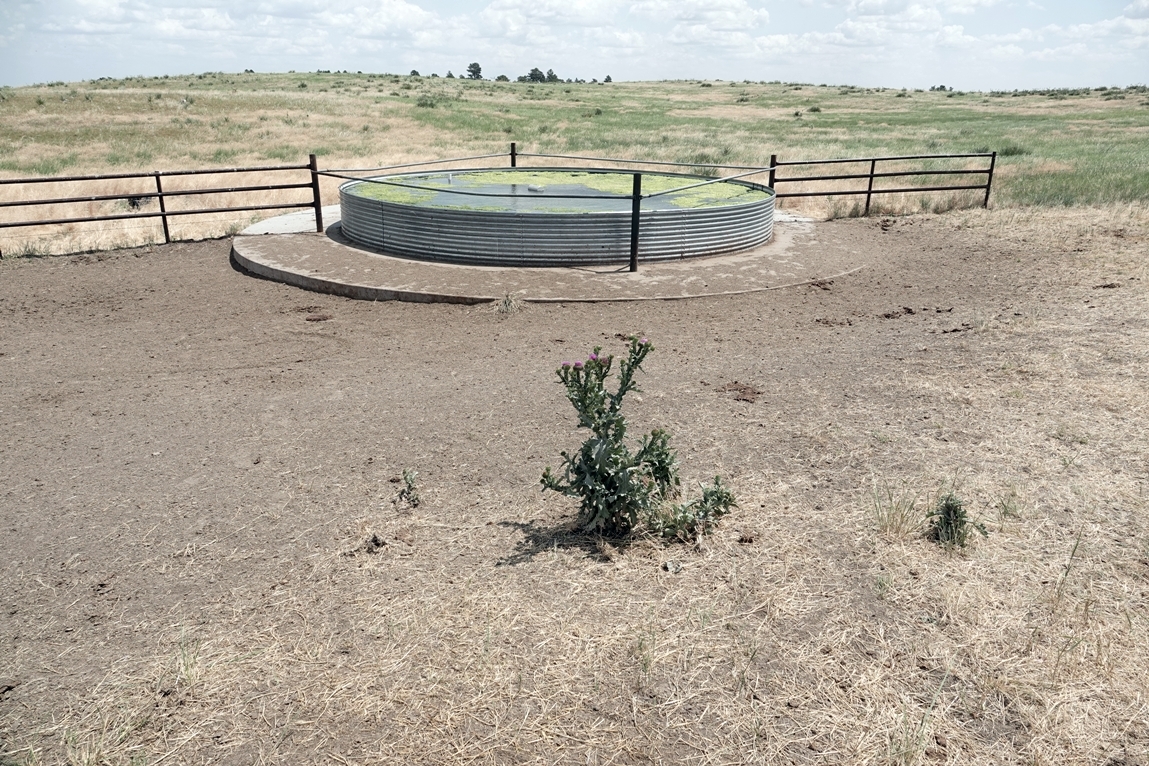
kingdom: Plantae
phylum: Tracheophyta
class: Magnoliopsida
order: Asterales
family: Asteraceae
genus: Onopordum
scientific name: Onopordum acanthium
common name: Scotch thistle
